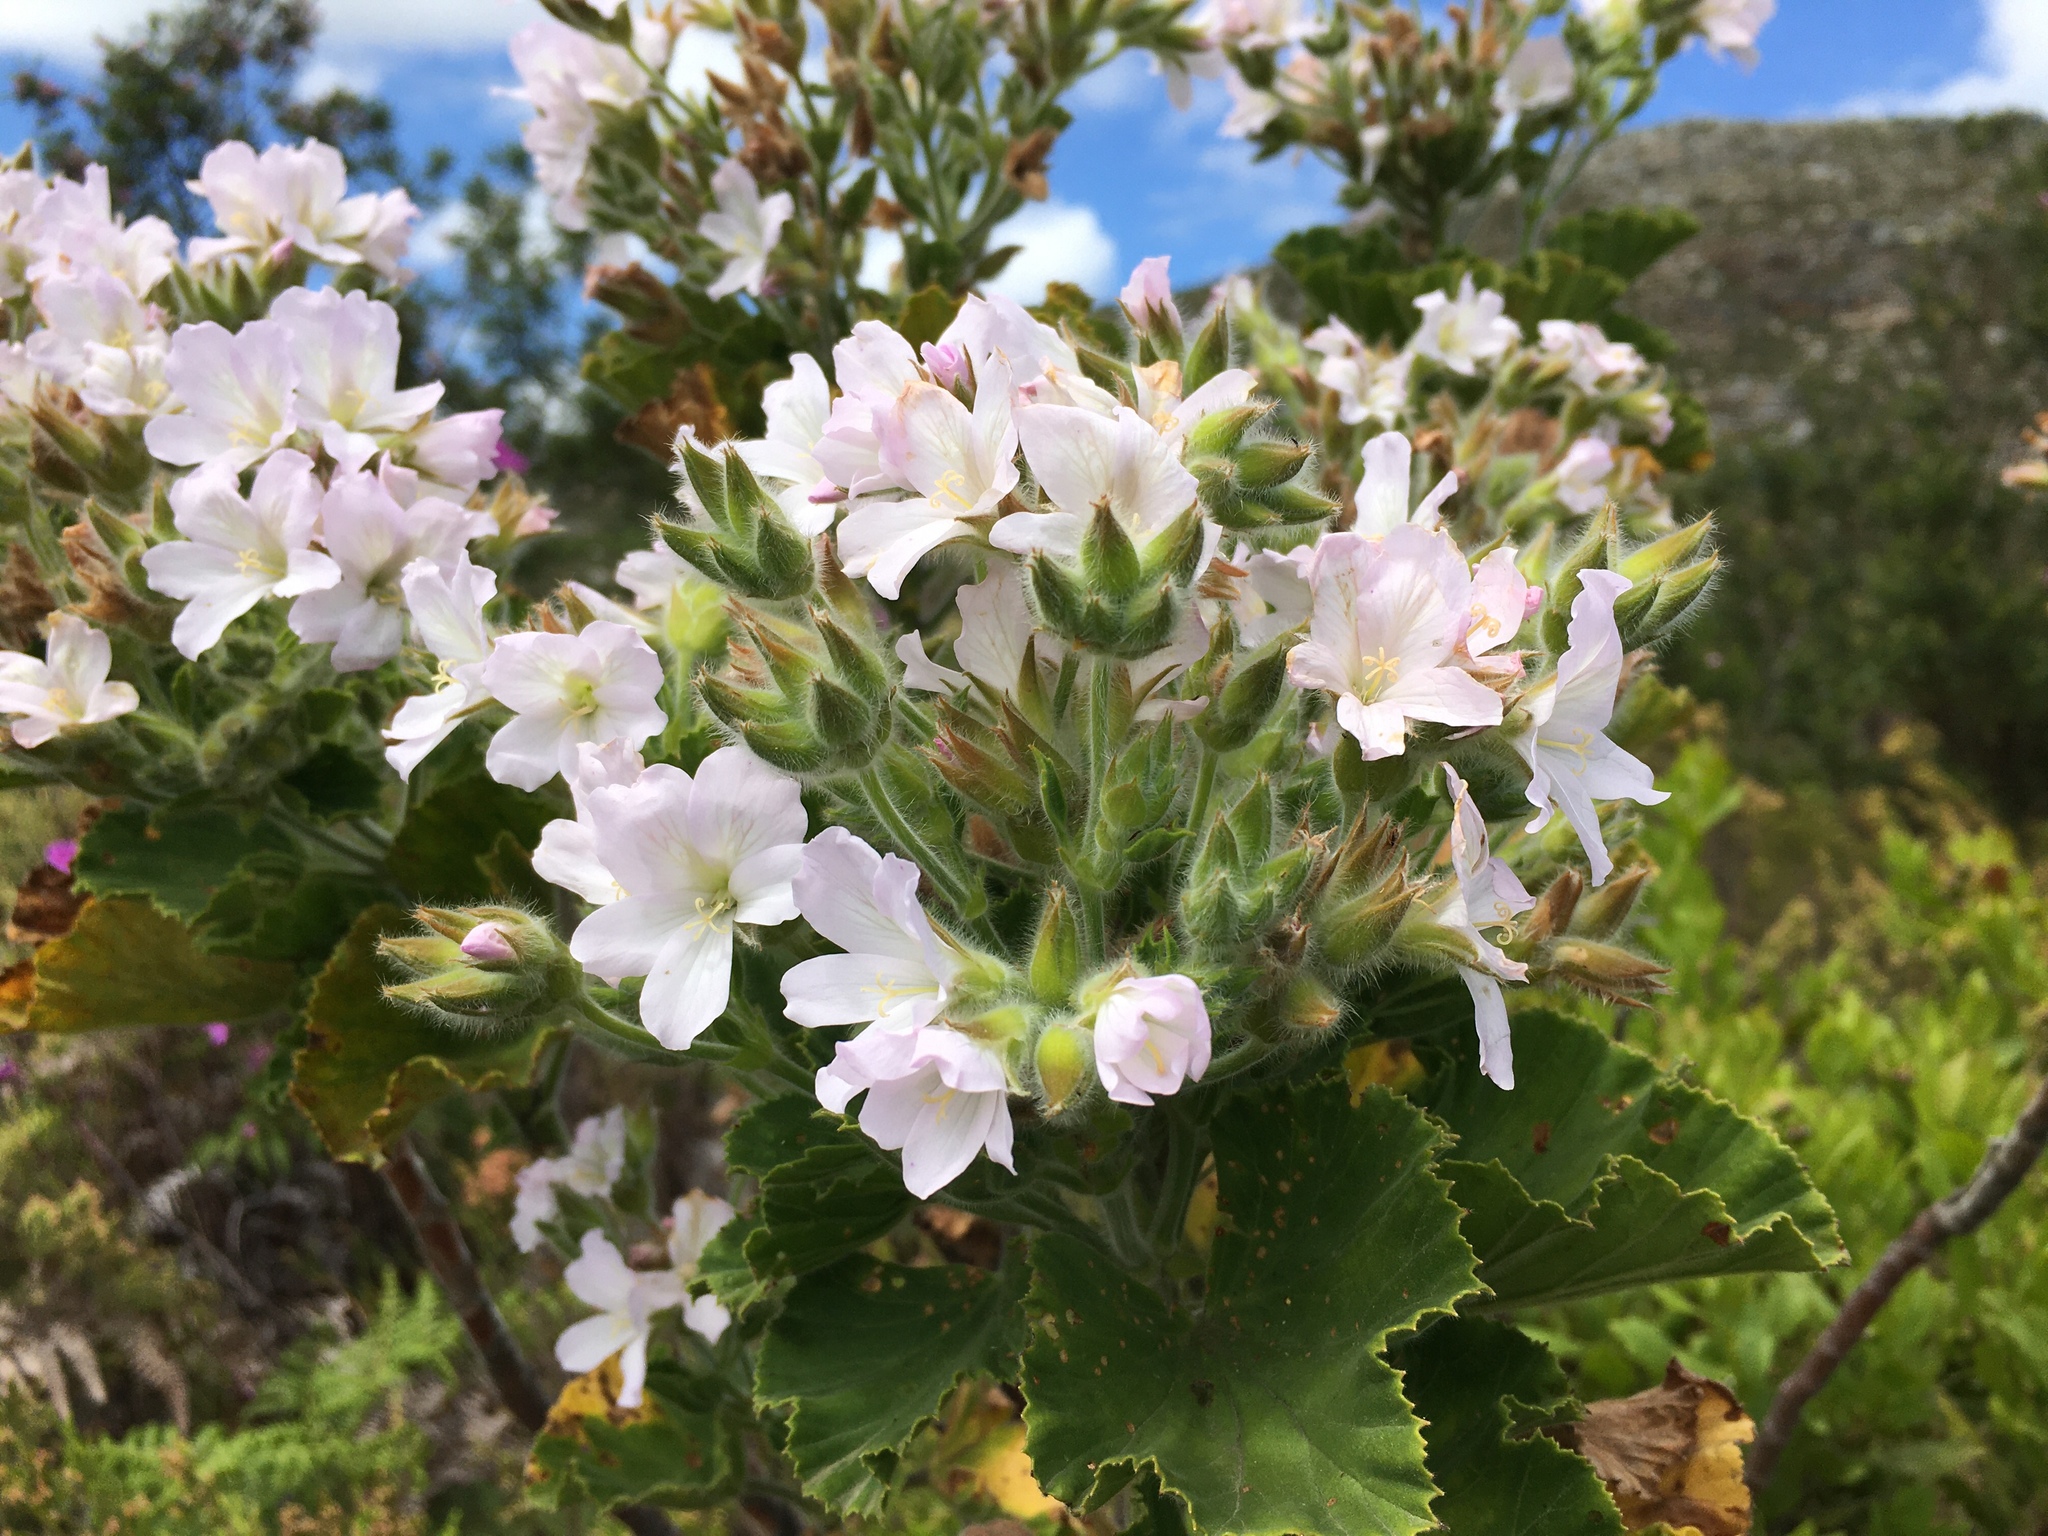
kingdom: Plantae
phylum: Tracheophyta
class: Magnoliopsida
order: Geraniales
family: Geraniaceae
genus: Pelargonium
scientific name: Pelargonium cucullatum
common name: Tree pelargonium
